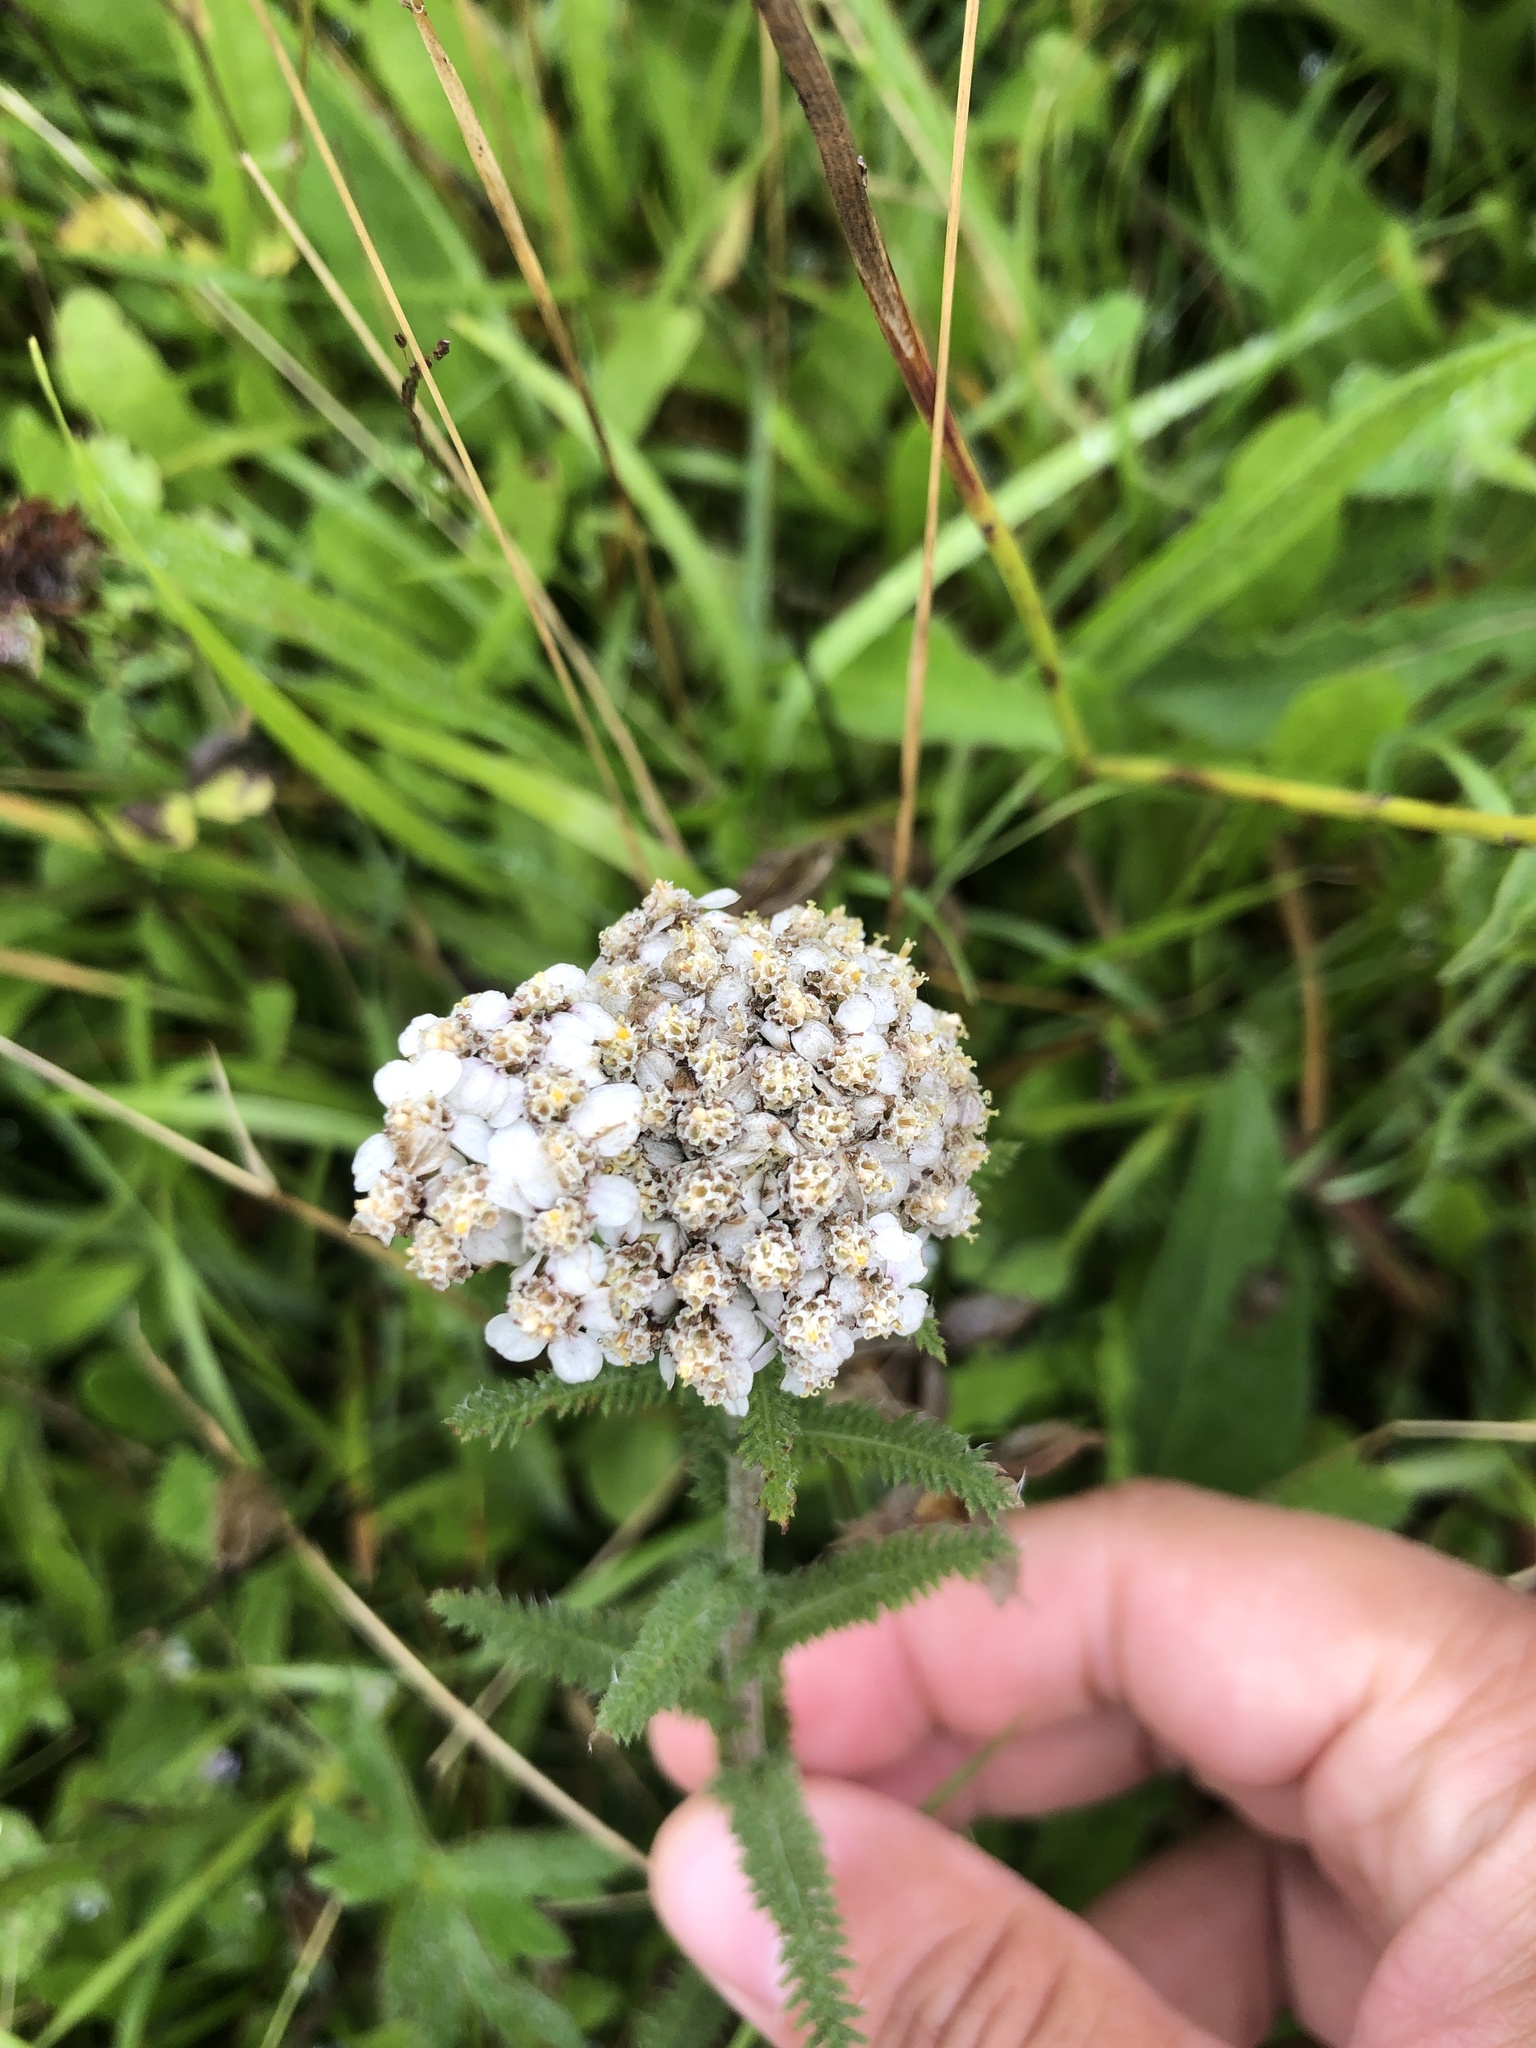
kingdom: Plantae
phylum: Tracheophyta
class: Magnoliopsida
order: Asterales
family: Asteraceae
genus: Achillea
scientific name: Achillea millefolium
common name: Yarrow
